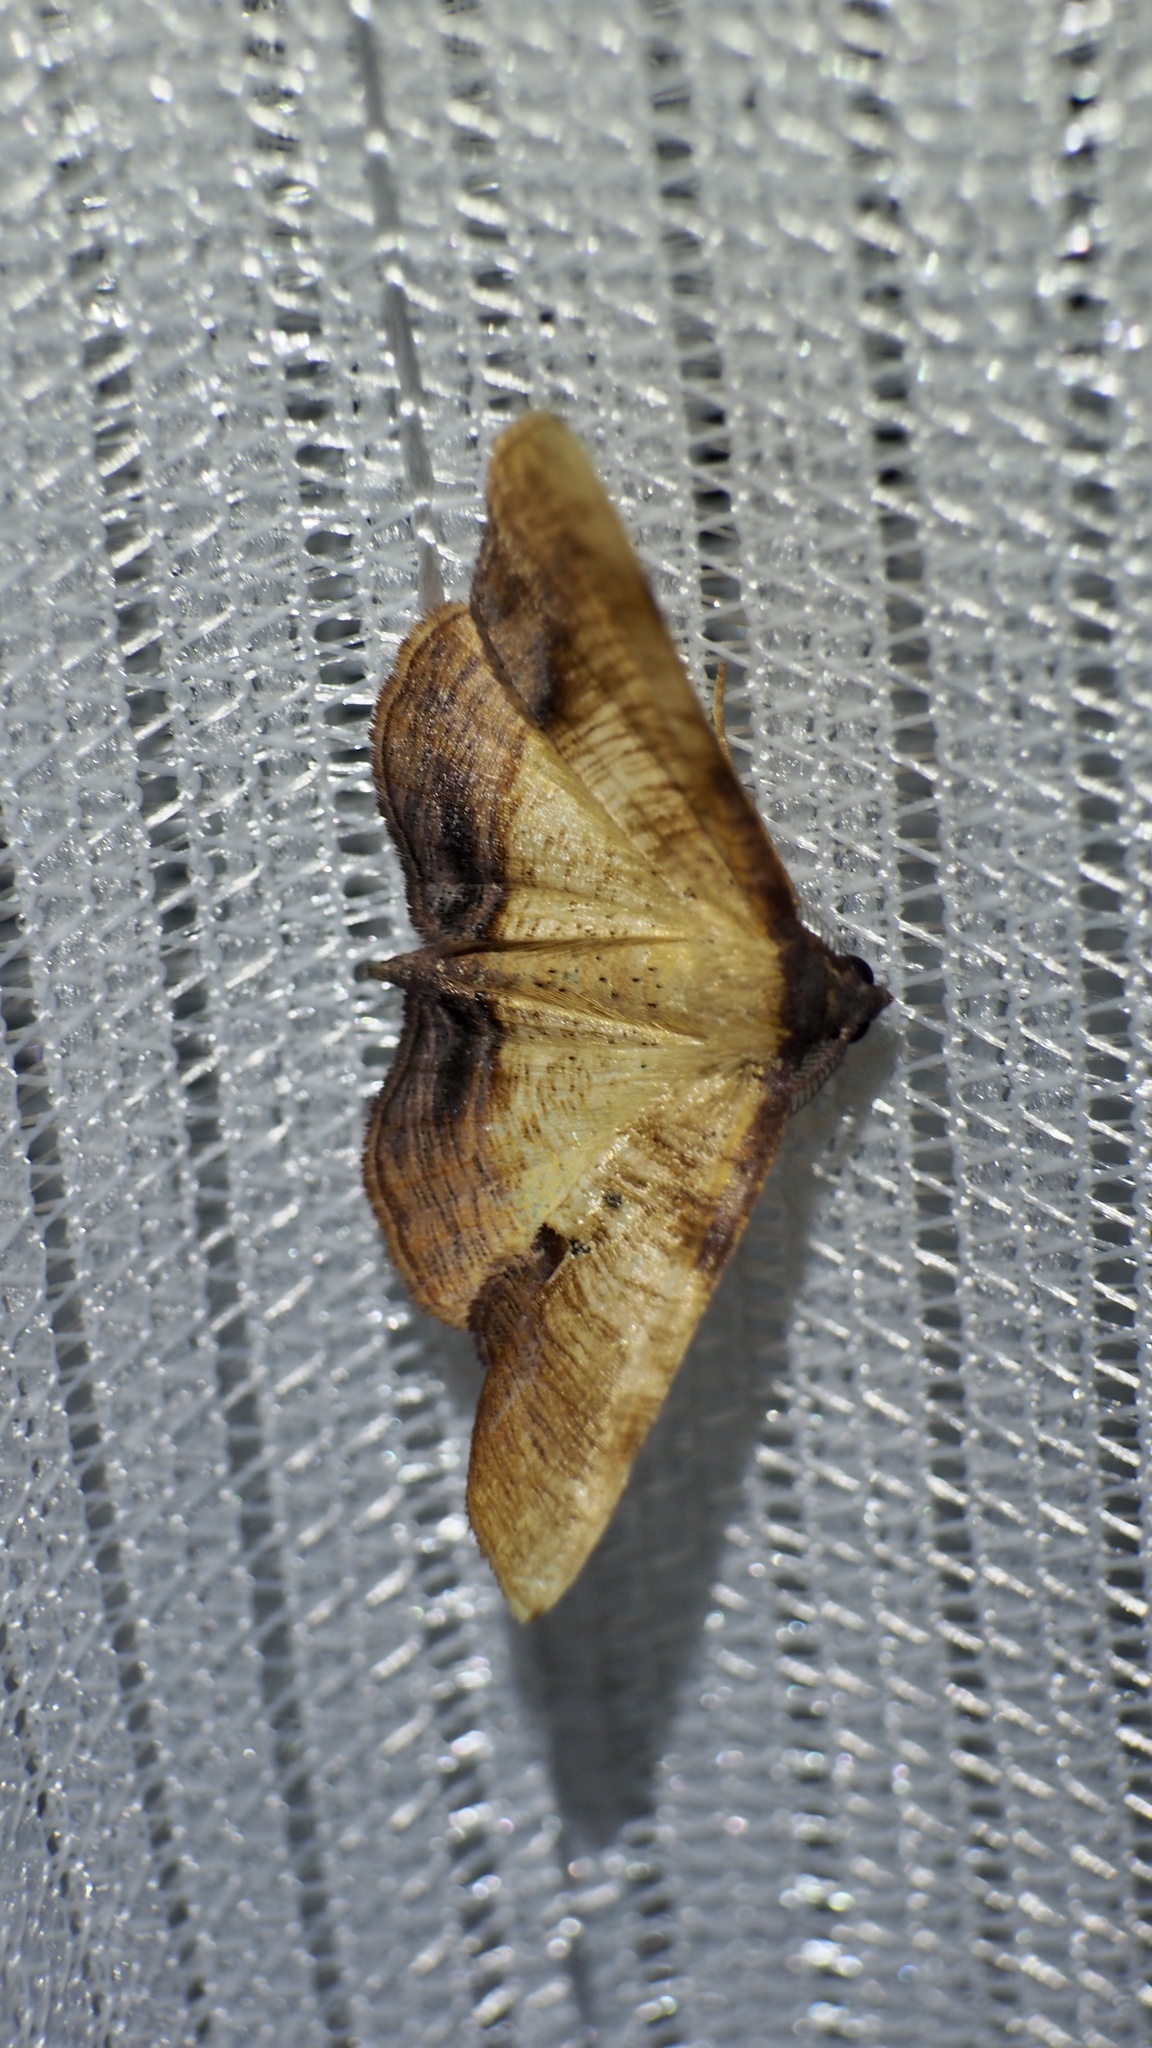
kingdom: Animalia
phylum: Arthropoda
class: Insecta
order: Lepidoptera
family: Geometridae
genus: Plagodis
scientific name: Plagodis dolabraria
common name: Scorched wing
